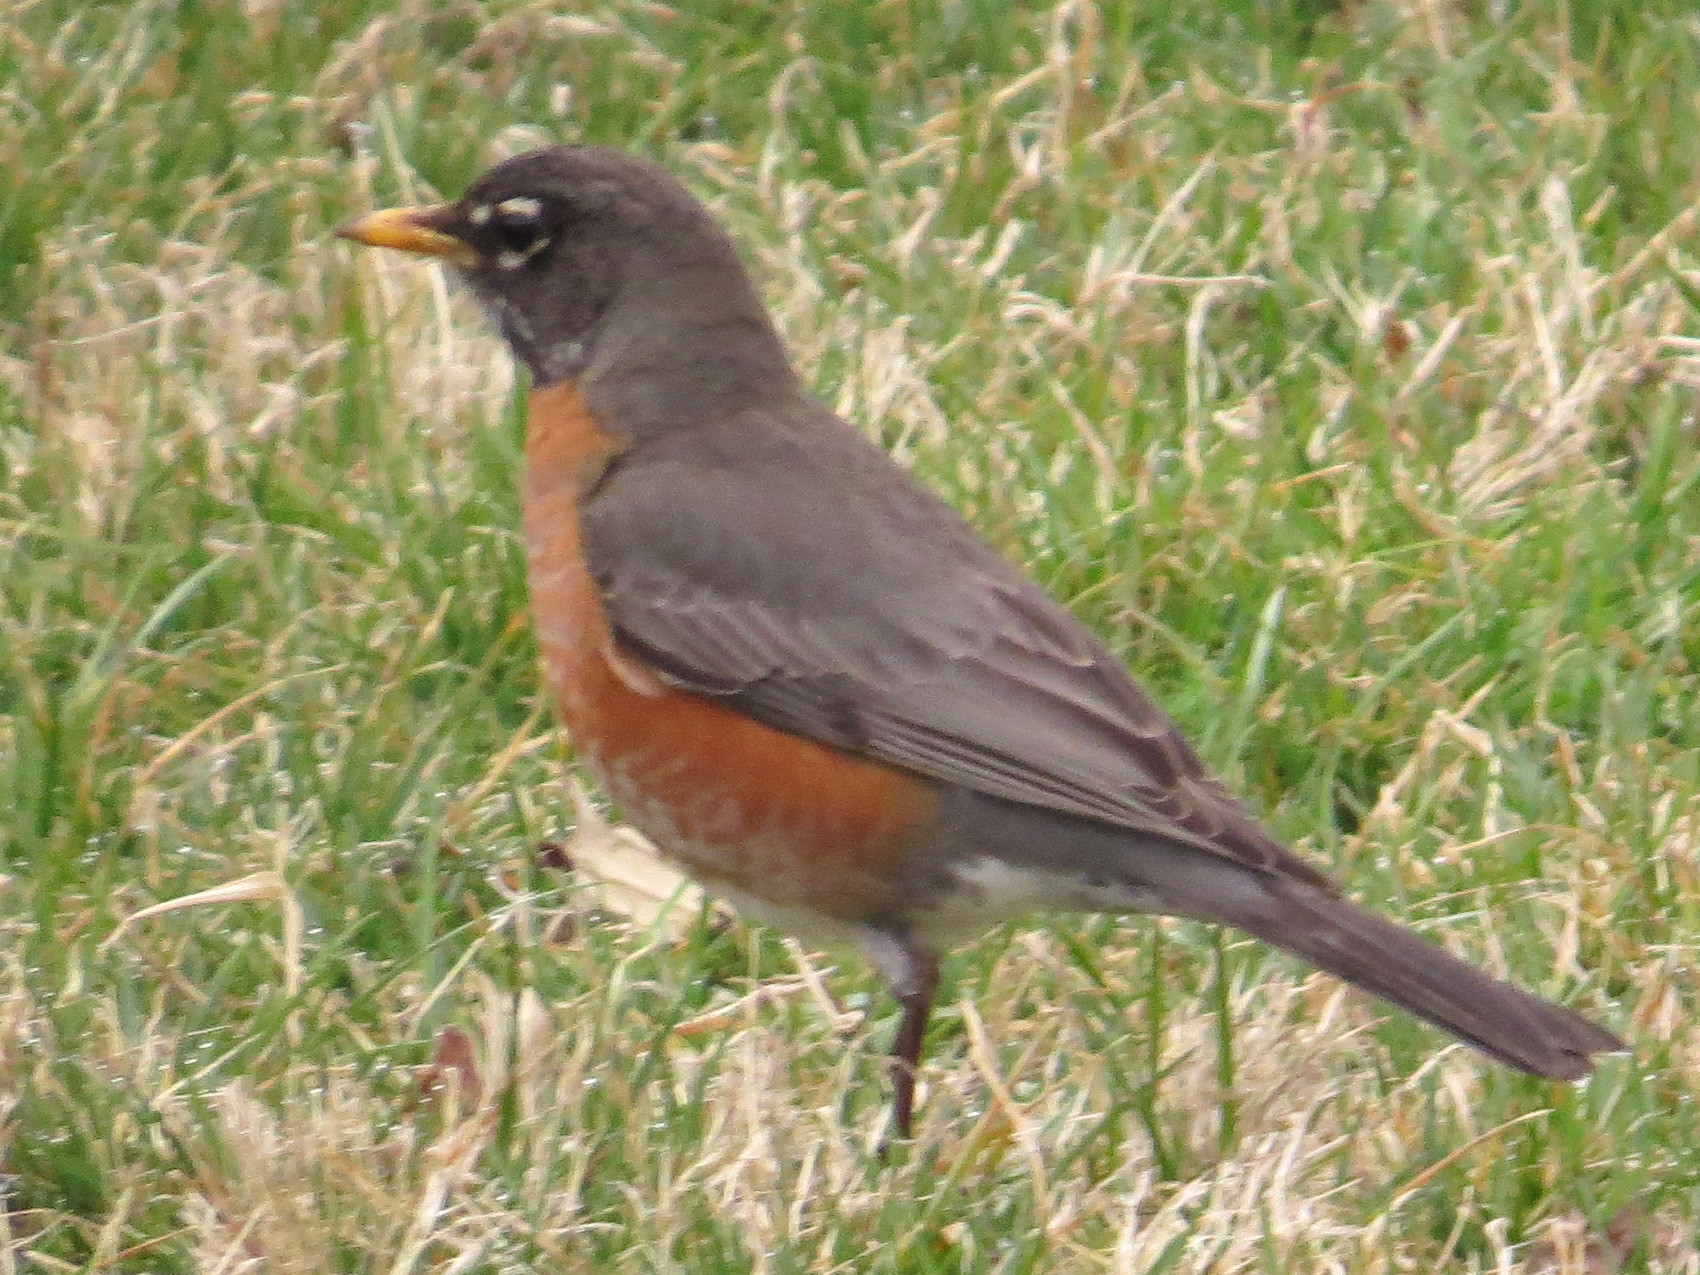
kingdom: Animalia
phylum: Chordata
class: Aves
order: Passeriformes
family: Turdidae
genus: Turdus
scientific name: Turdus migratorius
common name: American robin
